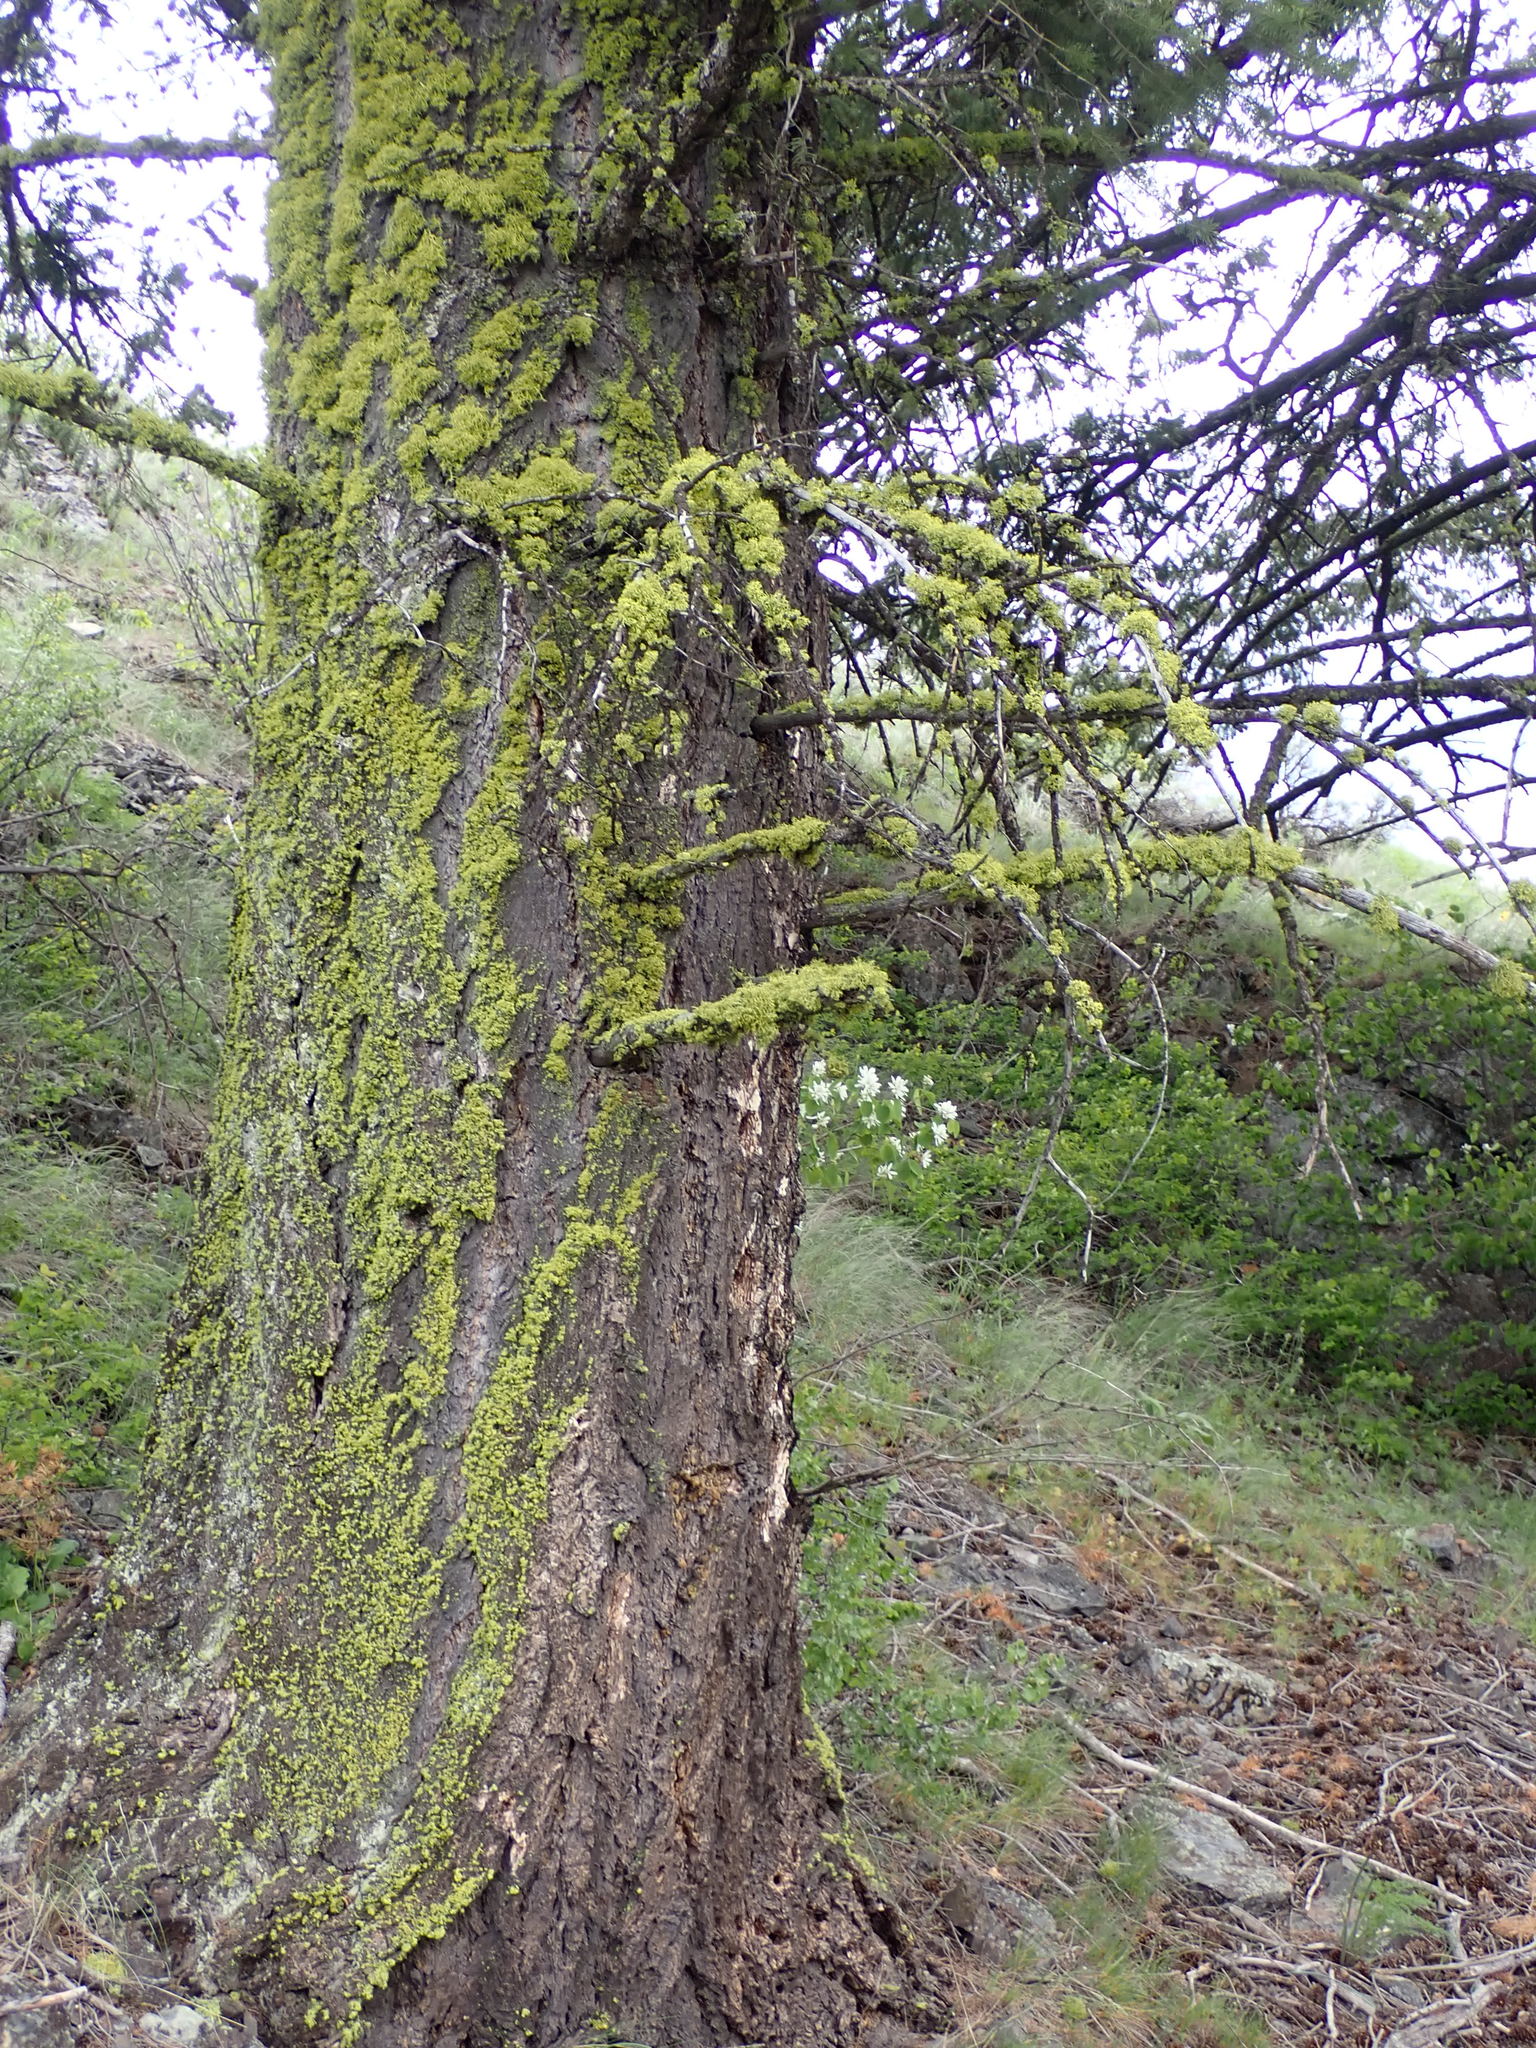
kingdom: Plantae
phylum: Tracheophyta
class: Pinopsida
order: Pinales
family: Pinaceae
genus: Pseudotsuga
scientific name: Pseudotsuga menziesii
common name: Douglas fir
